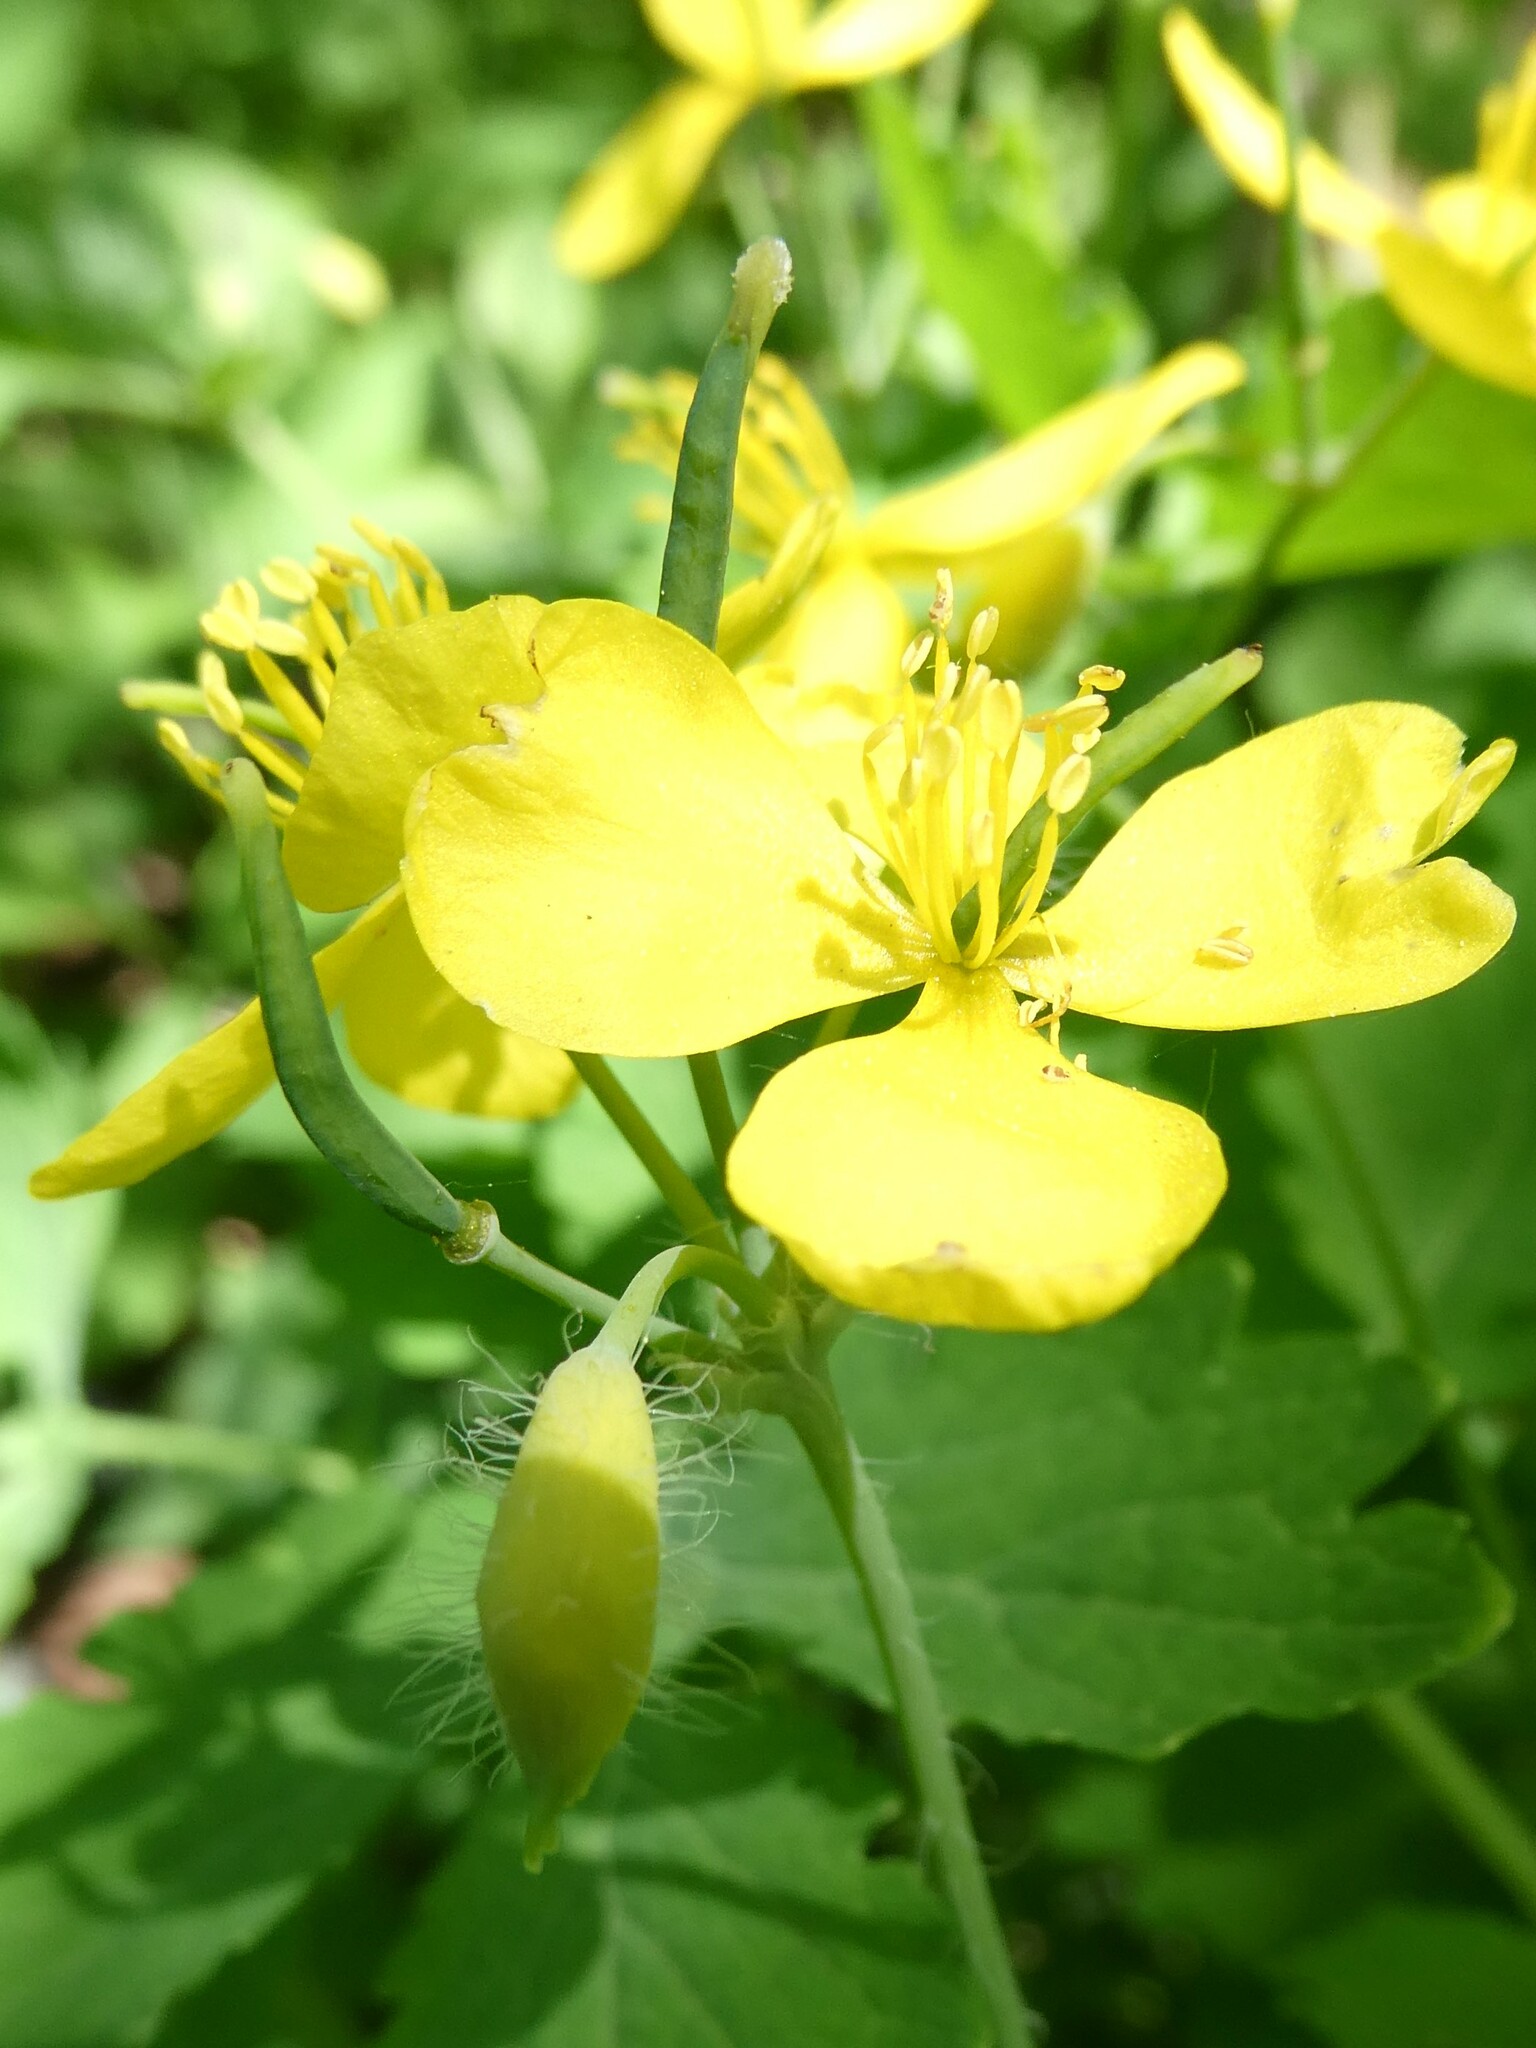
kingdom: Plantae
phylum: Tracheophyta
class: Magnoliopsida
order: Ranunculales
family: Papaveraceae
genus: Chelidonium
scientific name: Chelidonium majus
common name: Greater celandine
